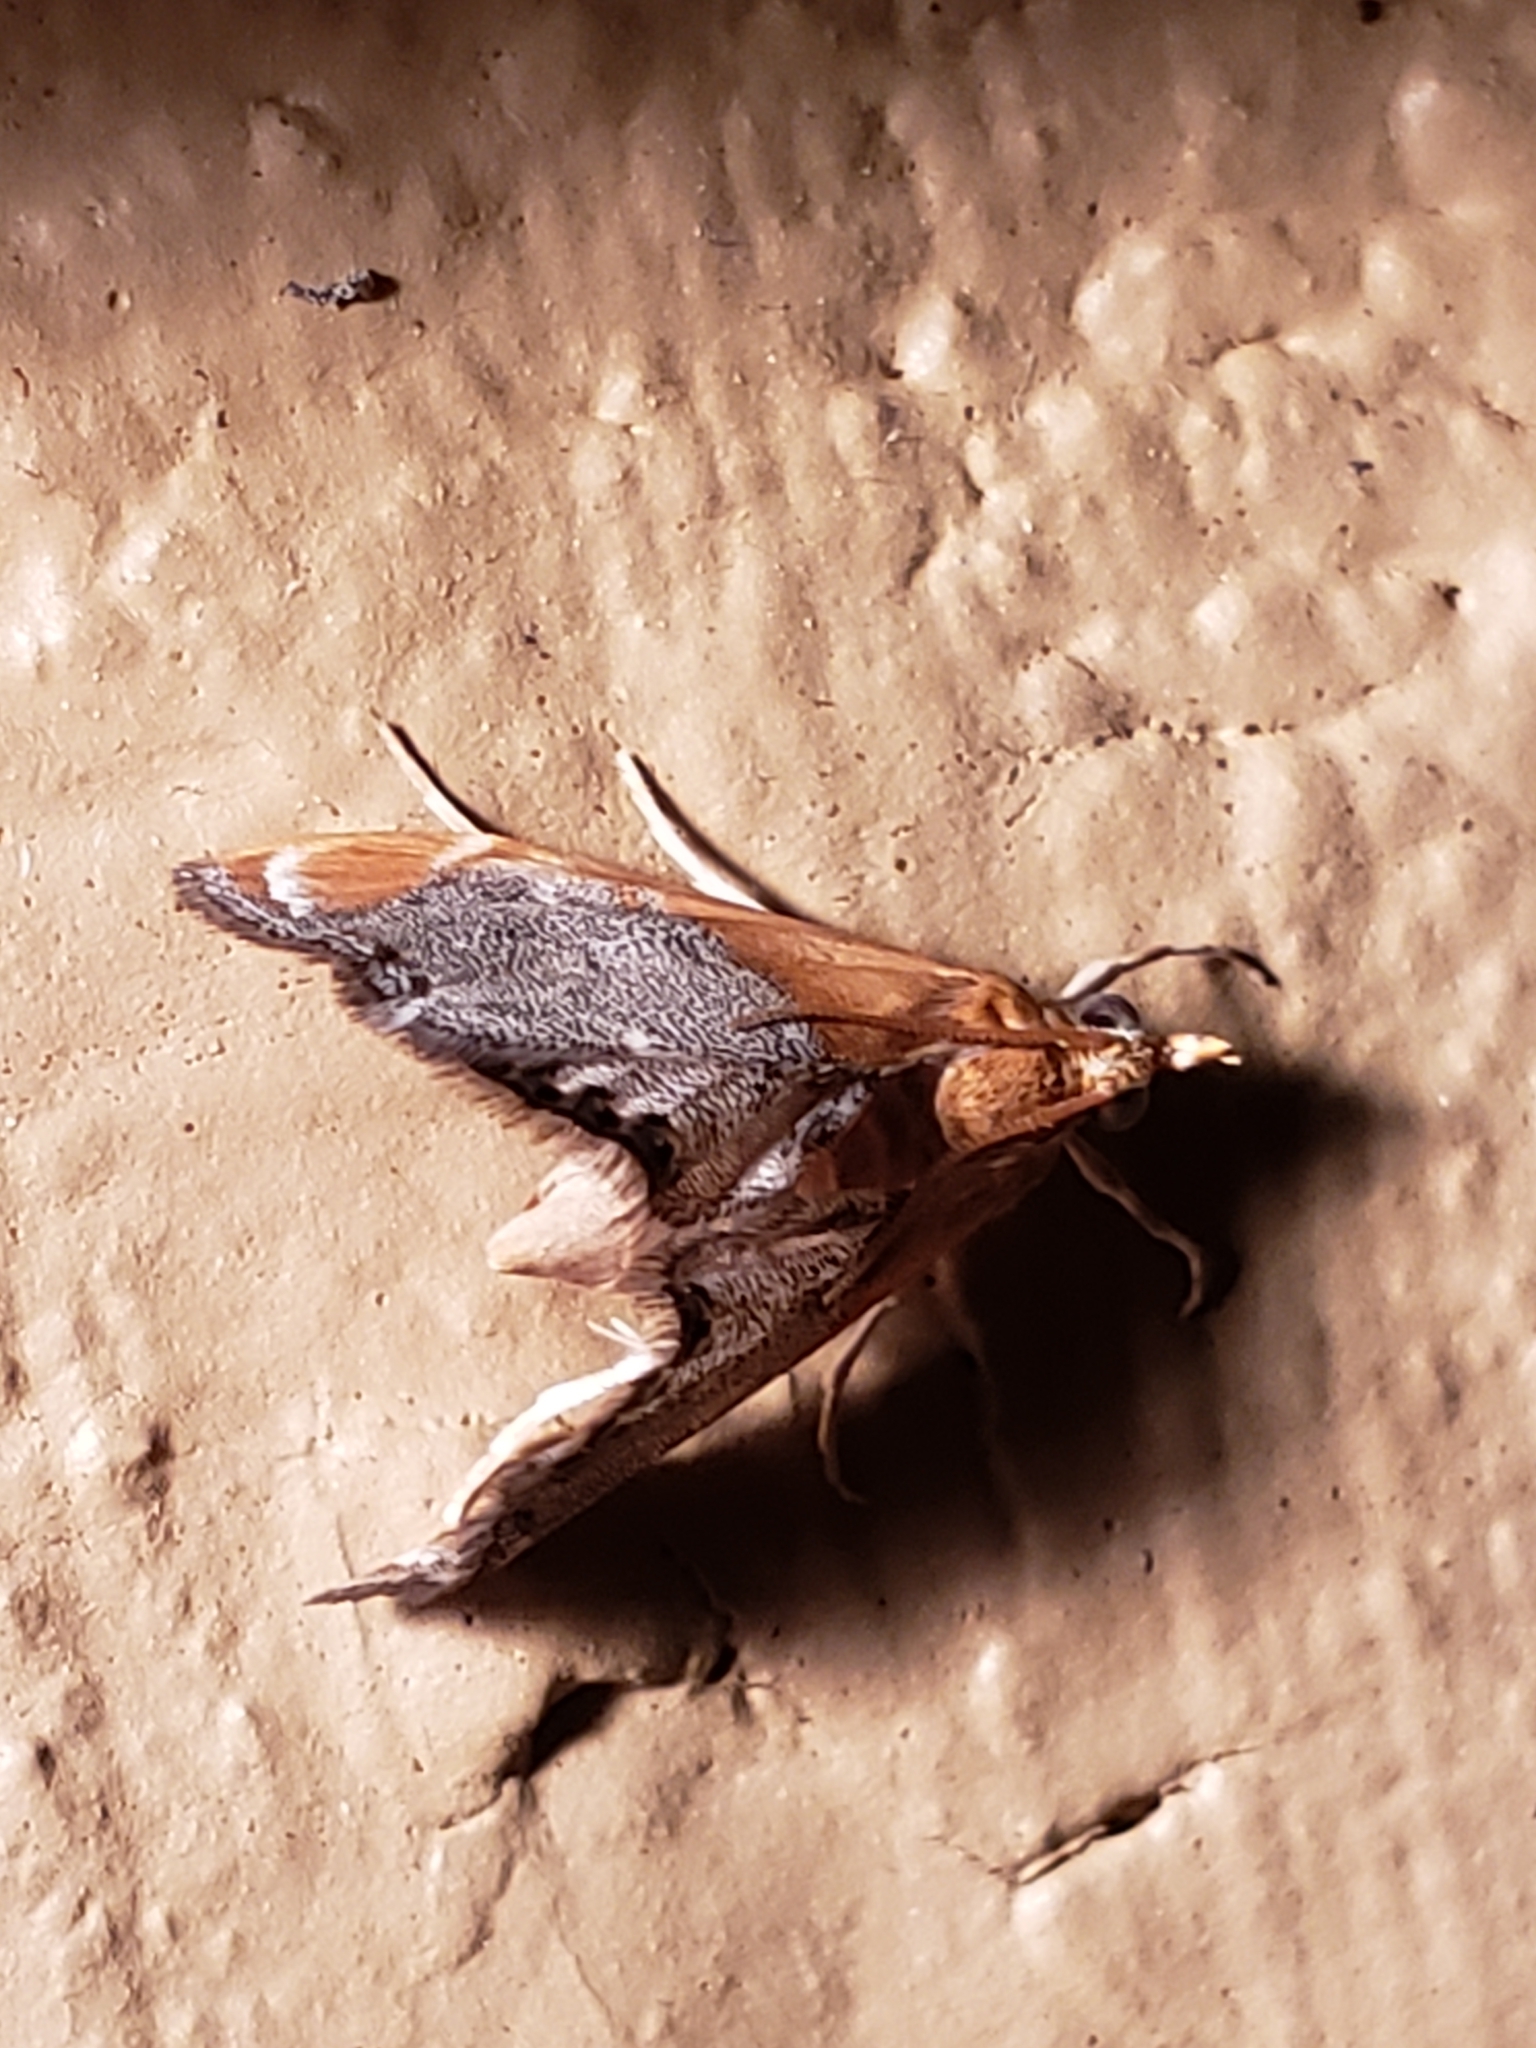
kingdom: Animalia
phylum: Arthropoda
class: Insecta
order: Lepidoptera
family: Crambidae
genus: Chalcoela
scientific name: Chalcoela iphitalis
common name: Sooty-winged chalcoela moth
